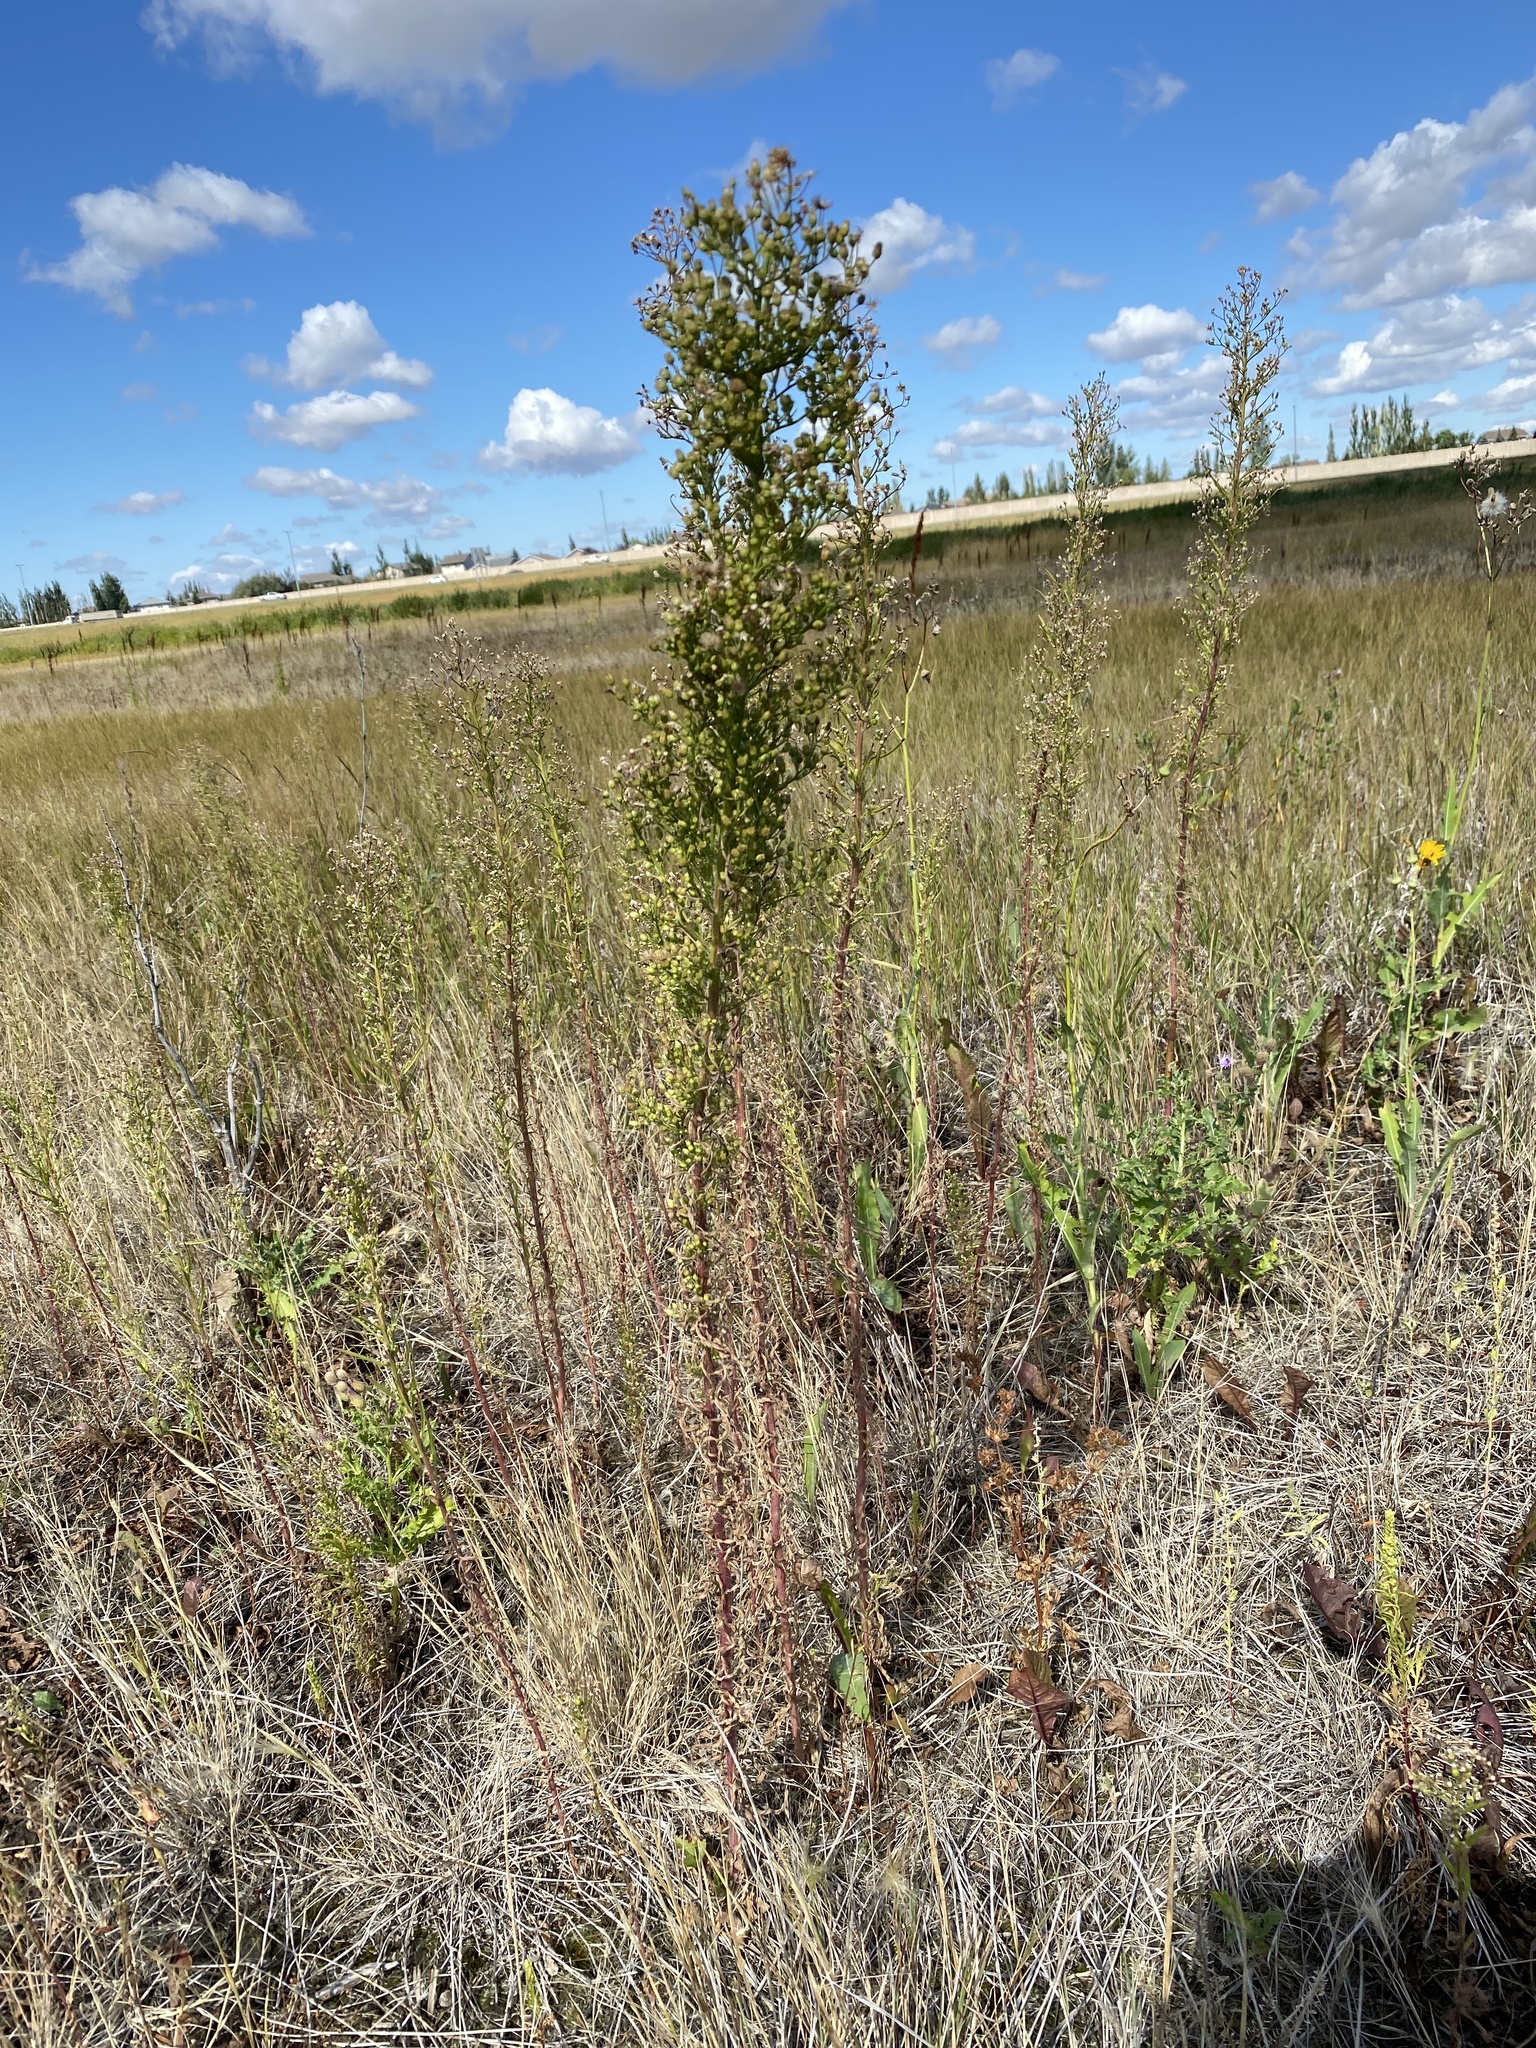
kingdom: Plantae
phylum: Tracheophyta
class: Magnoliopsida
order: Asterales
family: Asteraceae
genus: Artemisia
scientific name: Artemisia campestris
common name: Field wormwood
